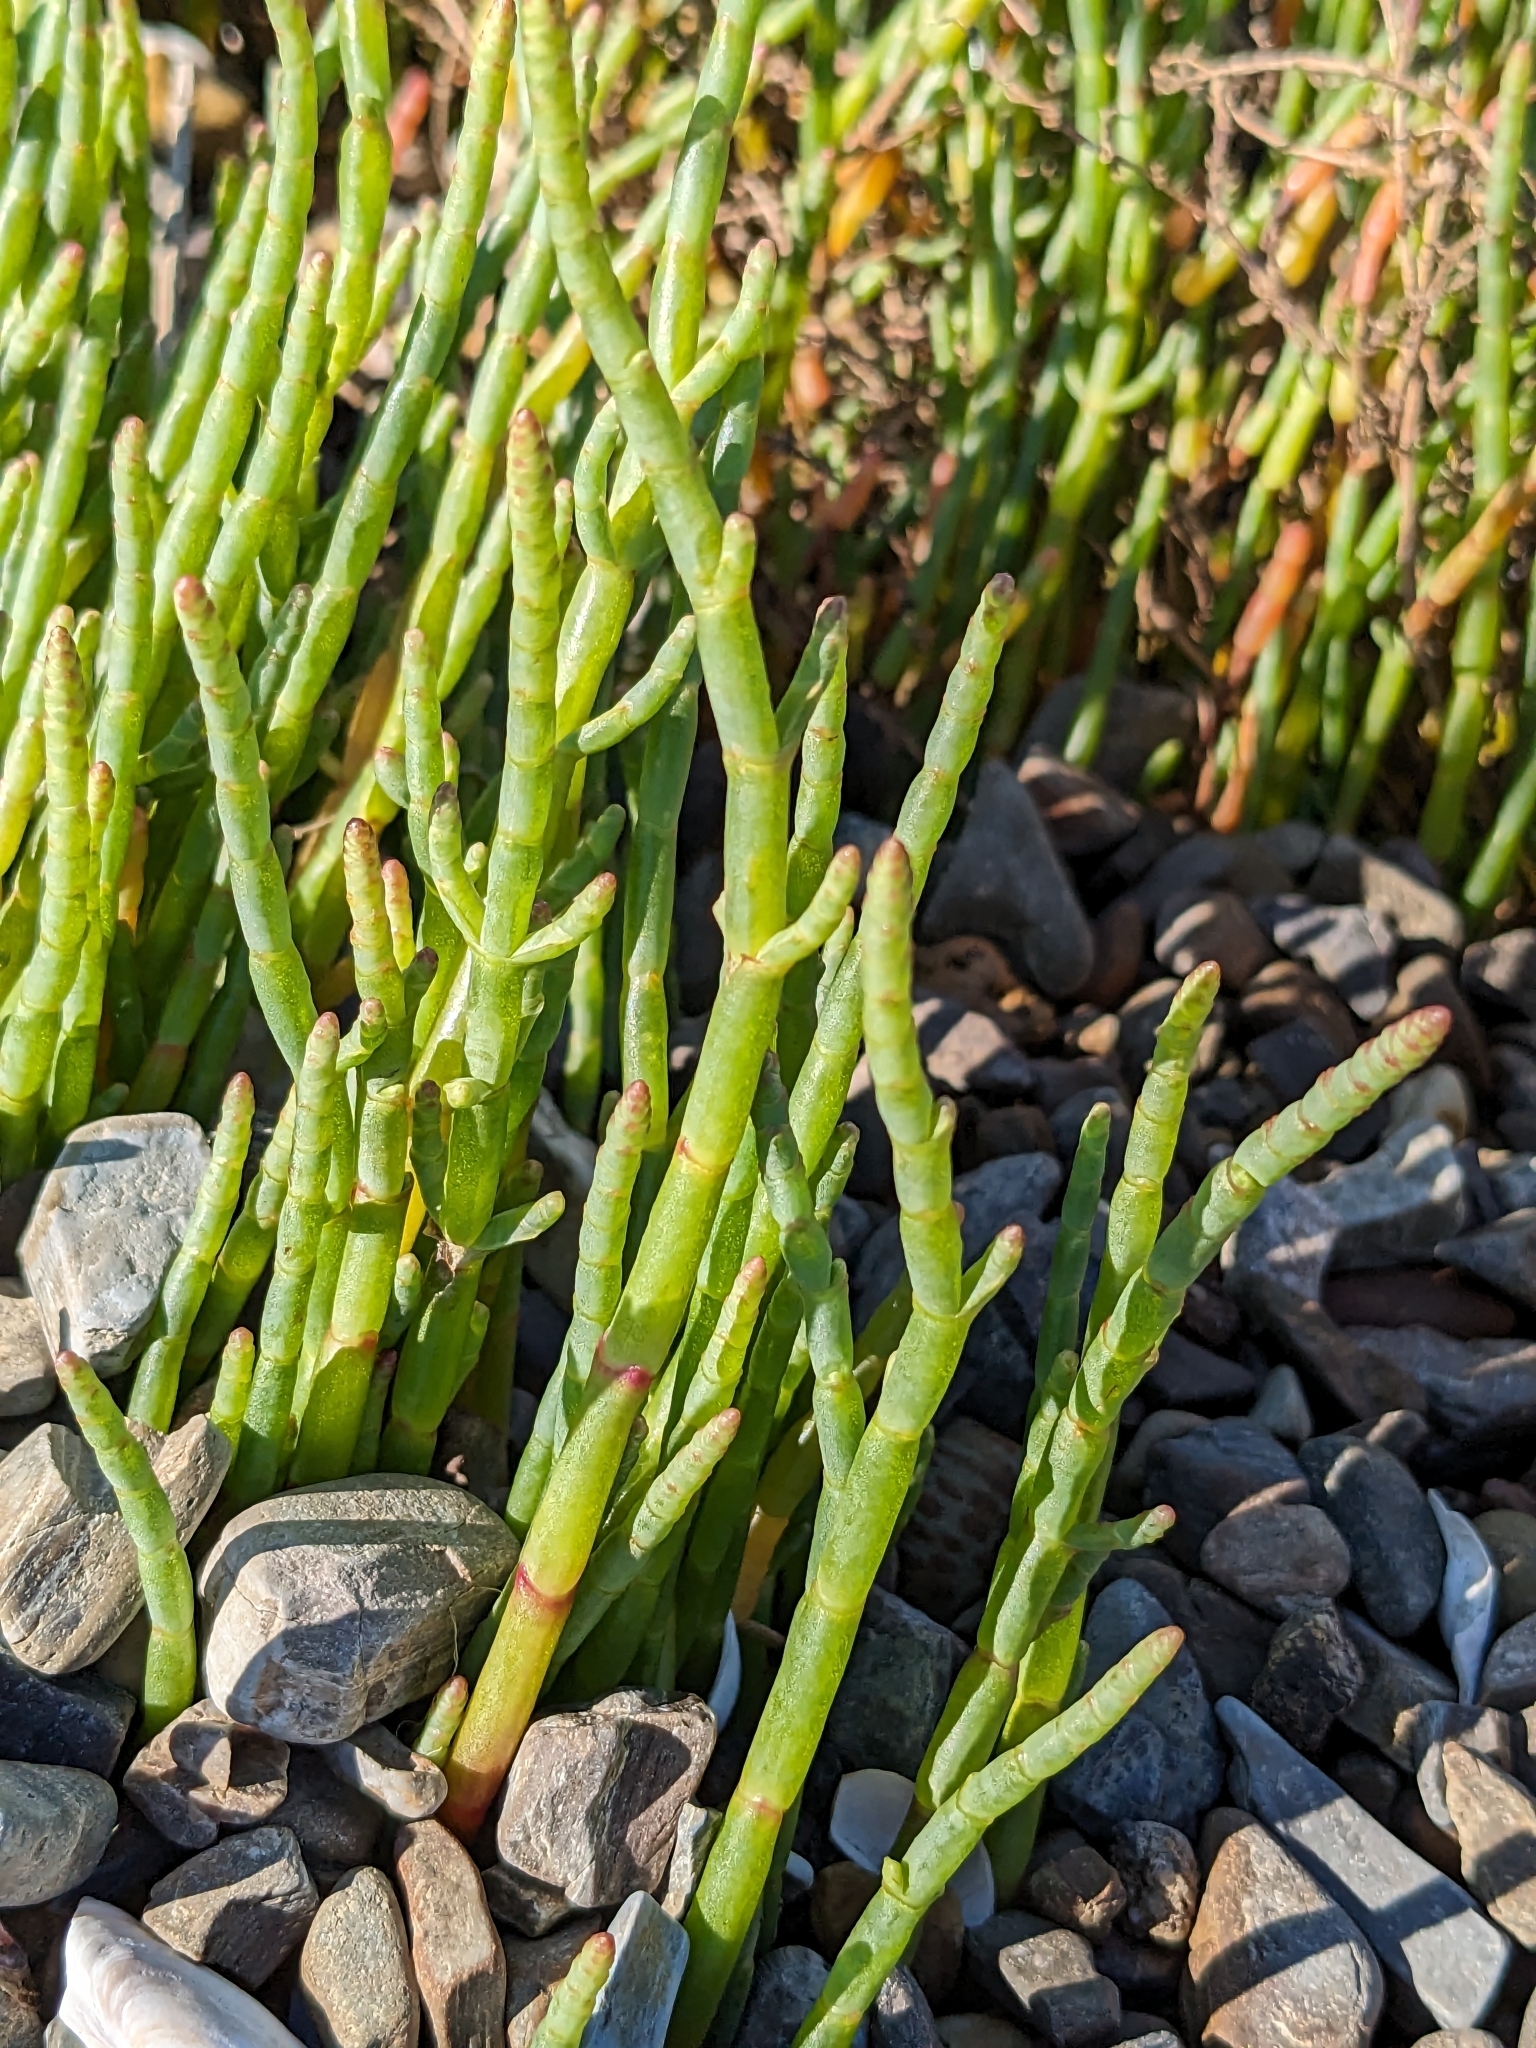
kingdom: Plantae
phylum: Tracheophyta
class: Magnoliopsida
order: Caryophyllales
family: Amaranthaceae
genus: Salicornia
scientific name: Salicornia pacifica
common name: Pacific glasswort
